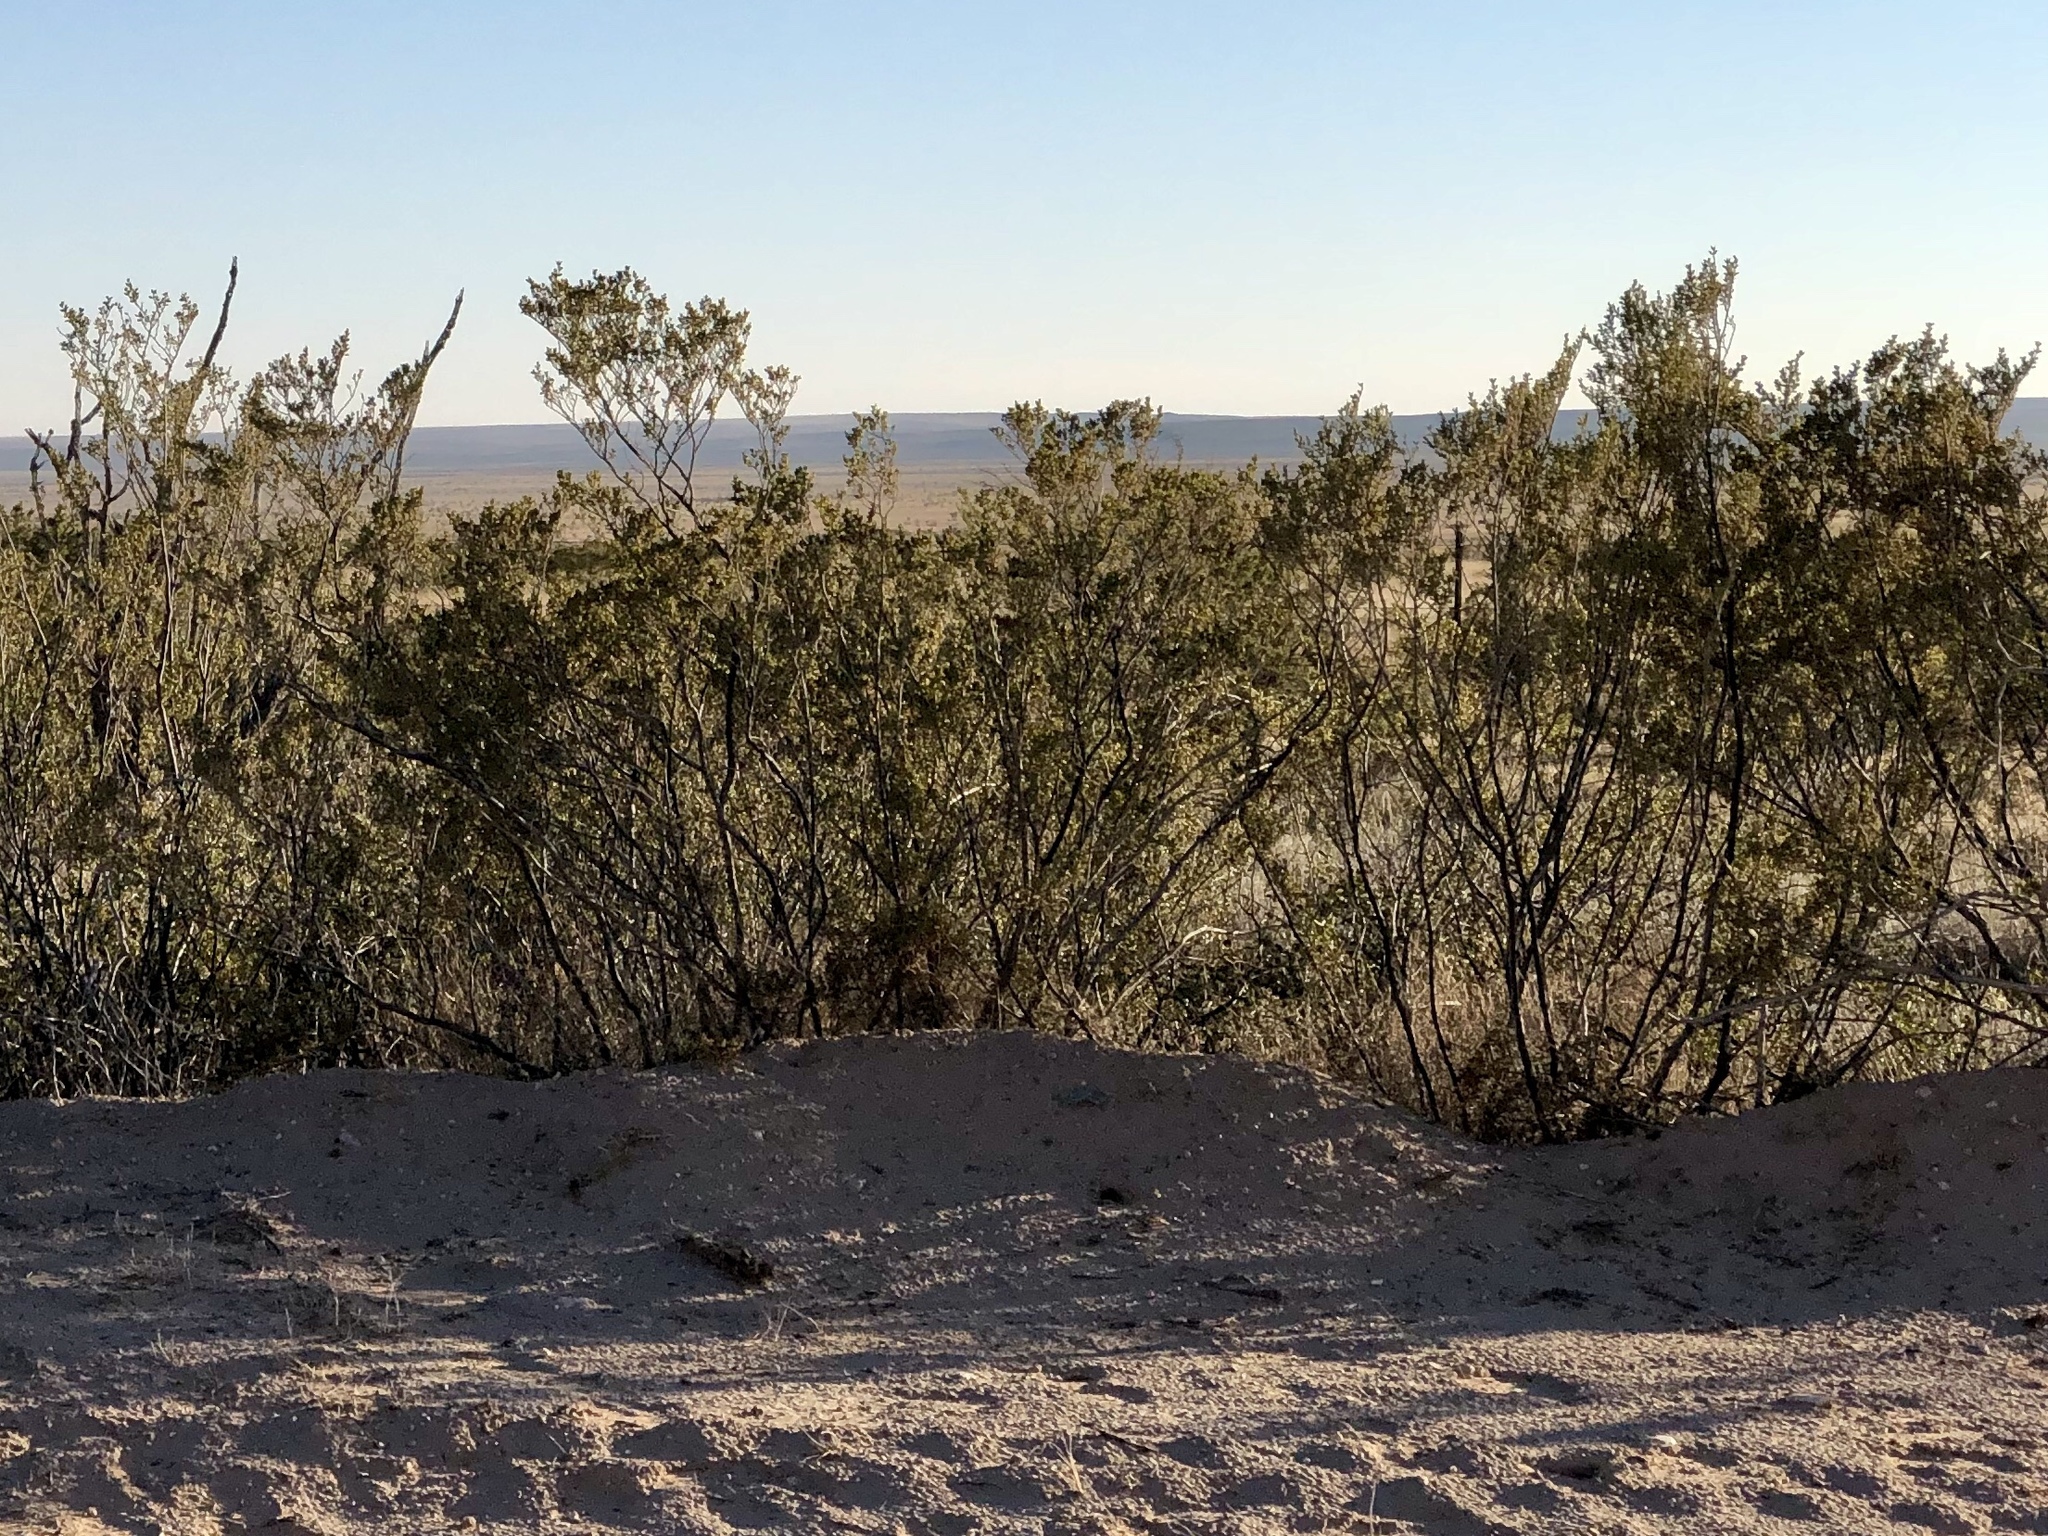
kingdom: Plantae
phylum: Tracheophyta
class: Magnoliopsida
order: Zygophyllales
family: Zygophyllaceae
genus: Larrea
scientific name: Larrea tridentata
